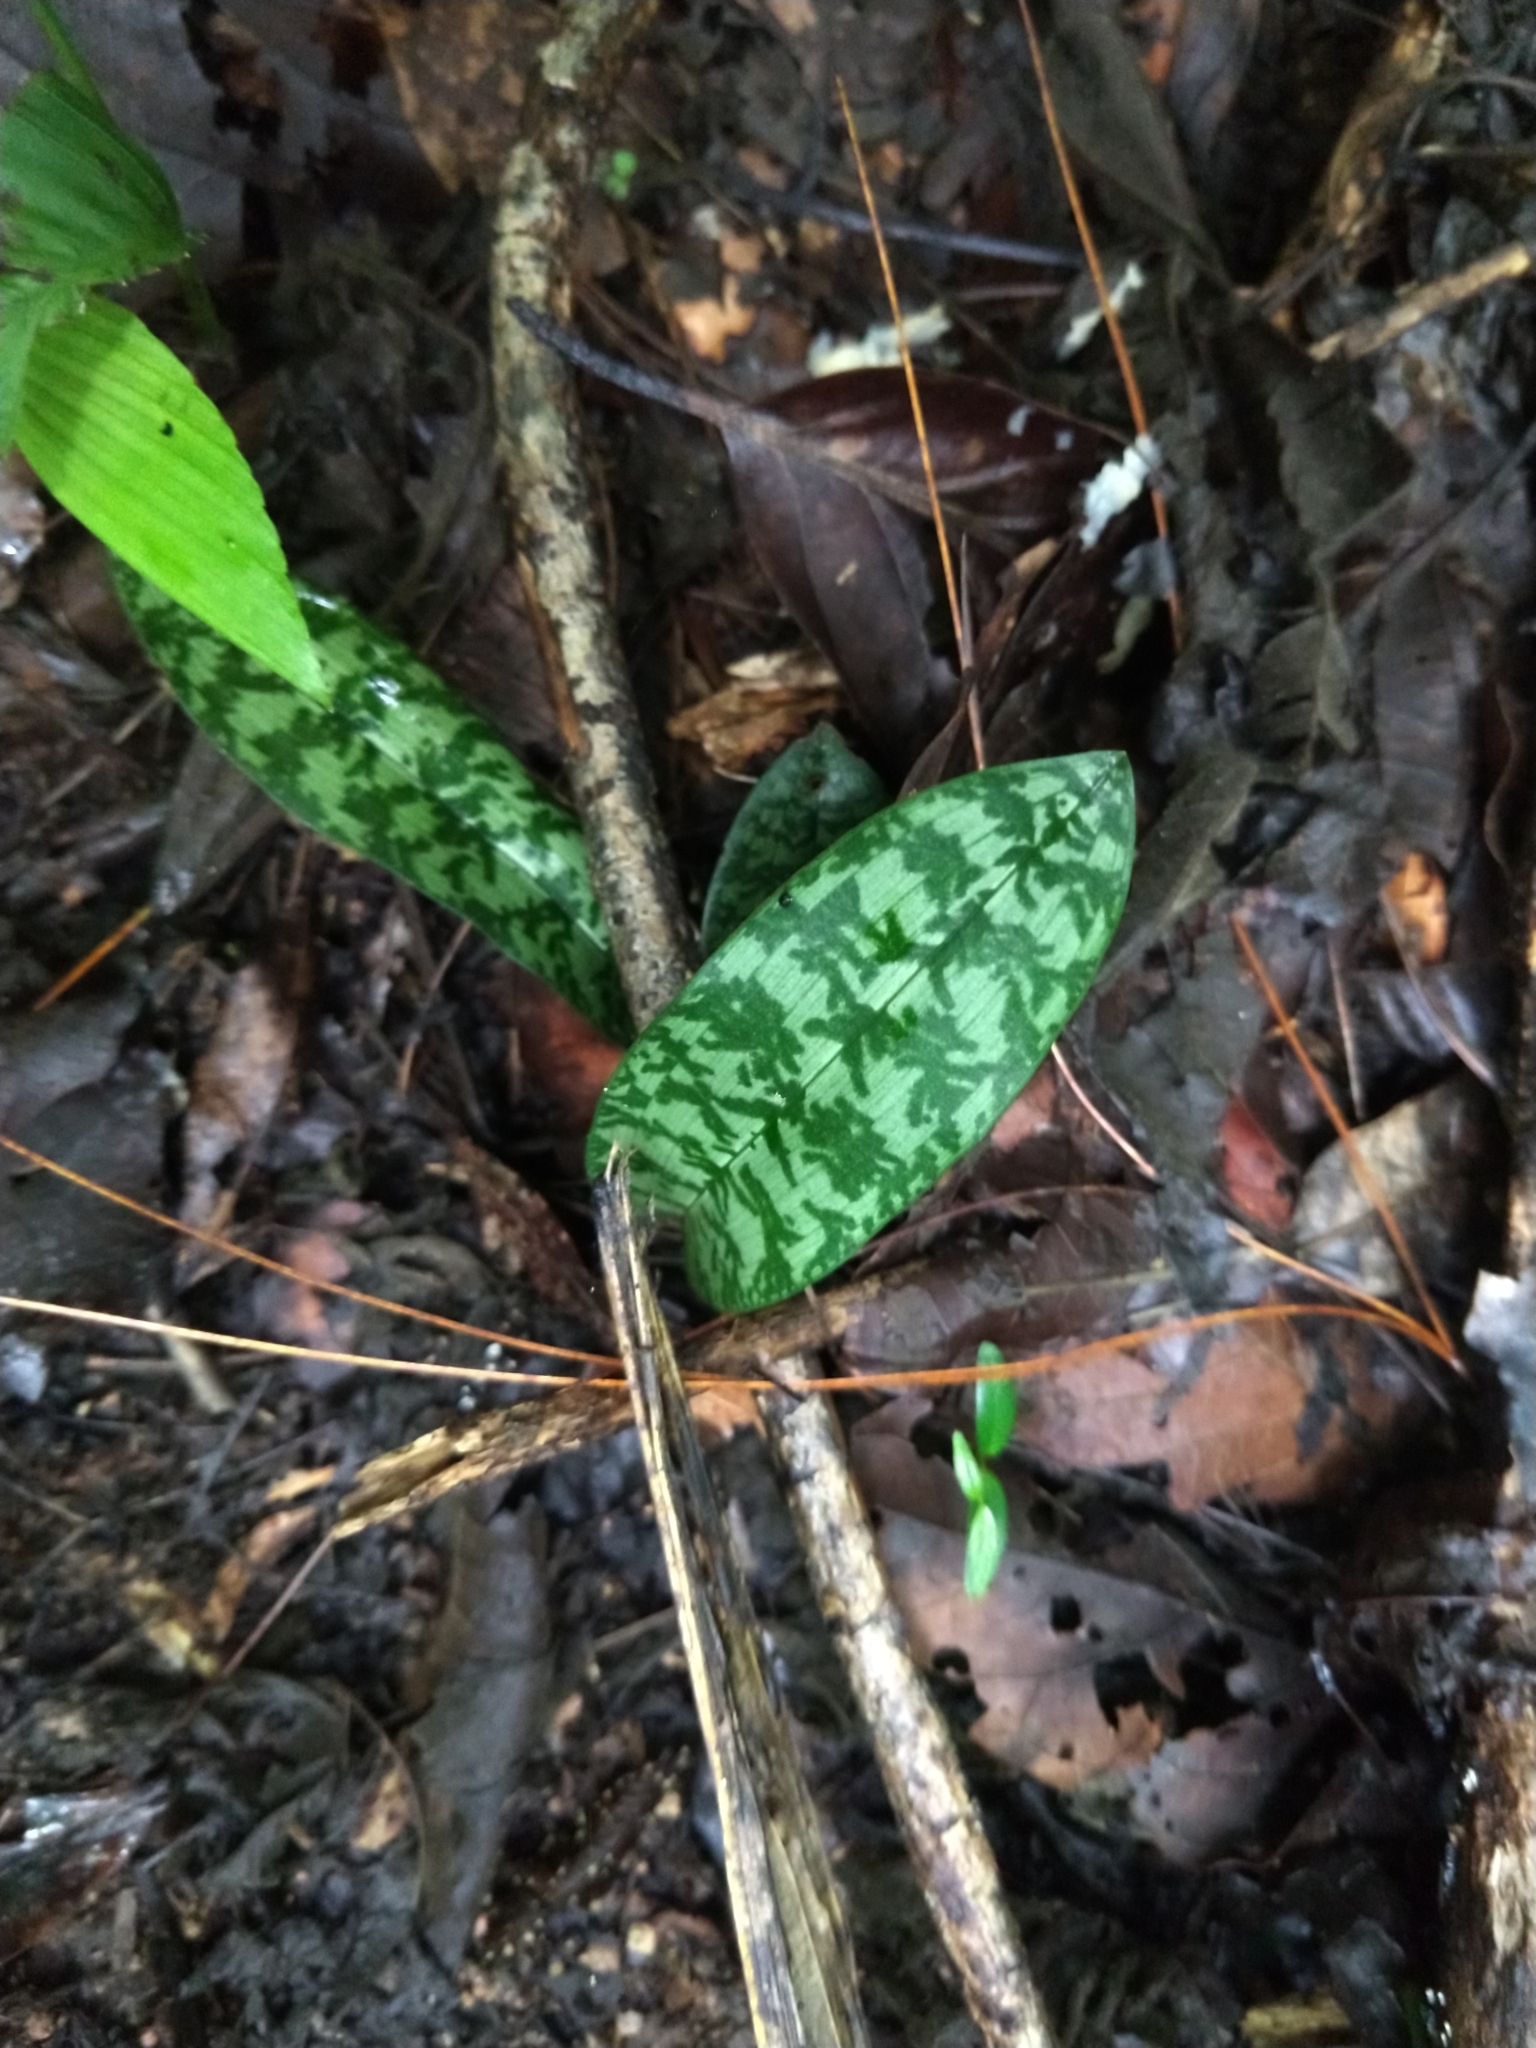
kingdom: Plantae
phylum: Tracheophyta
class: Liliopsida
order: Asparagales
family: Orchidaceae
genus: Eulophia
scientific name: Eulophia maculata
